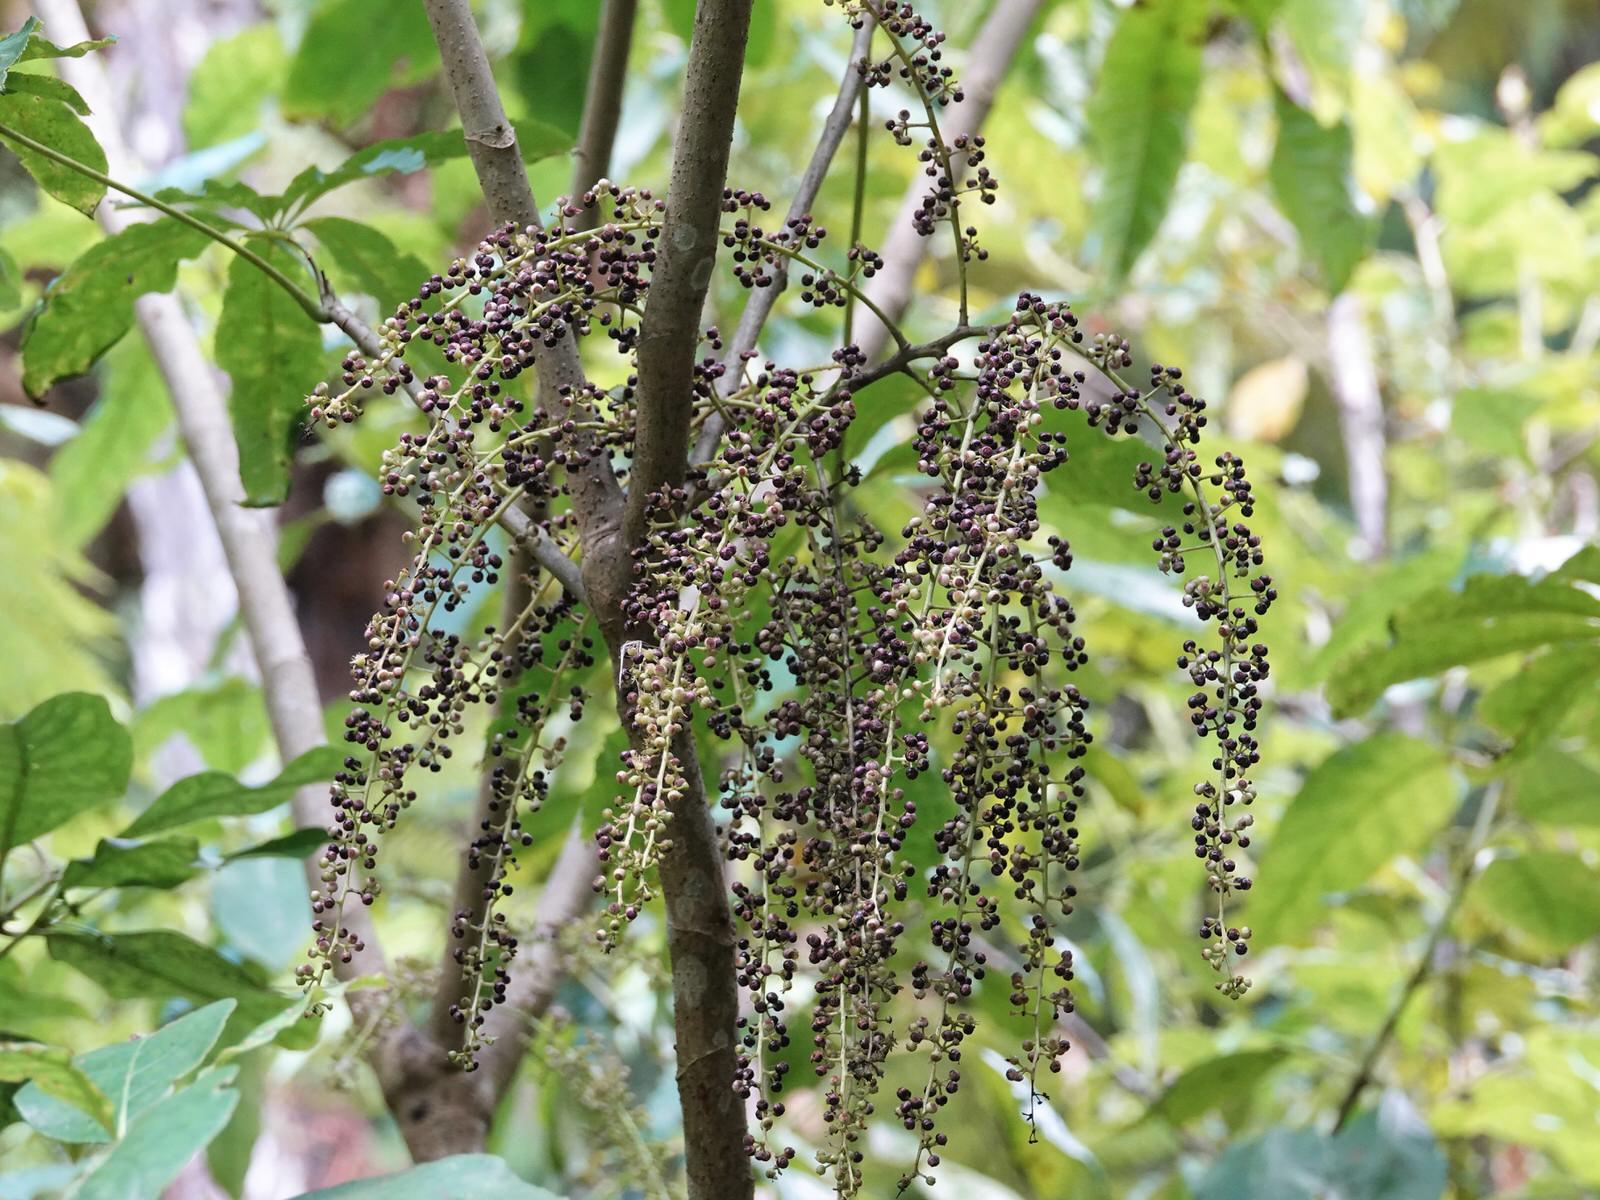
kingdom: Plantae
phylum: Tracheophyta
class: Magnoliopsida
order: Apiales
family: Araliaceae
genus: Schefflera
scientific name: Schefflera digitata
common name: Pate
